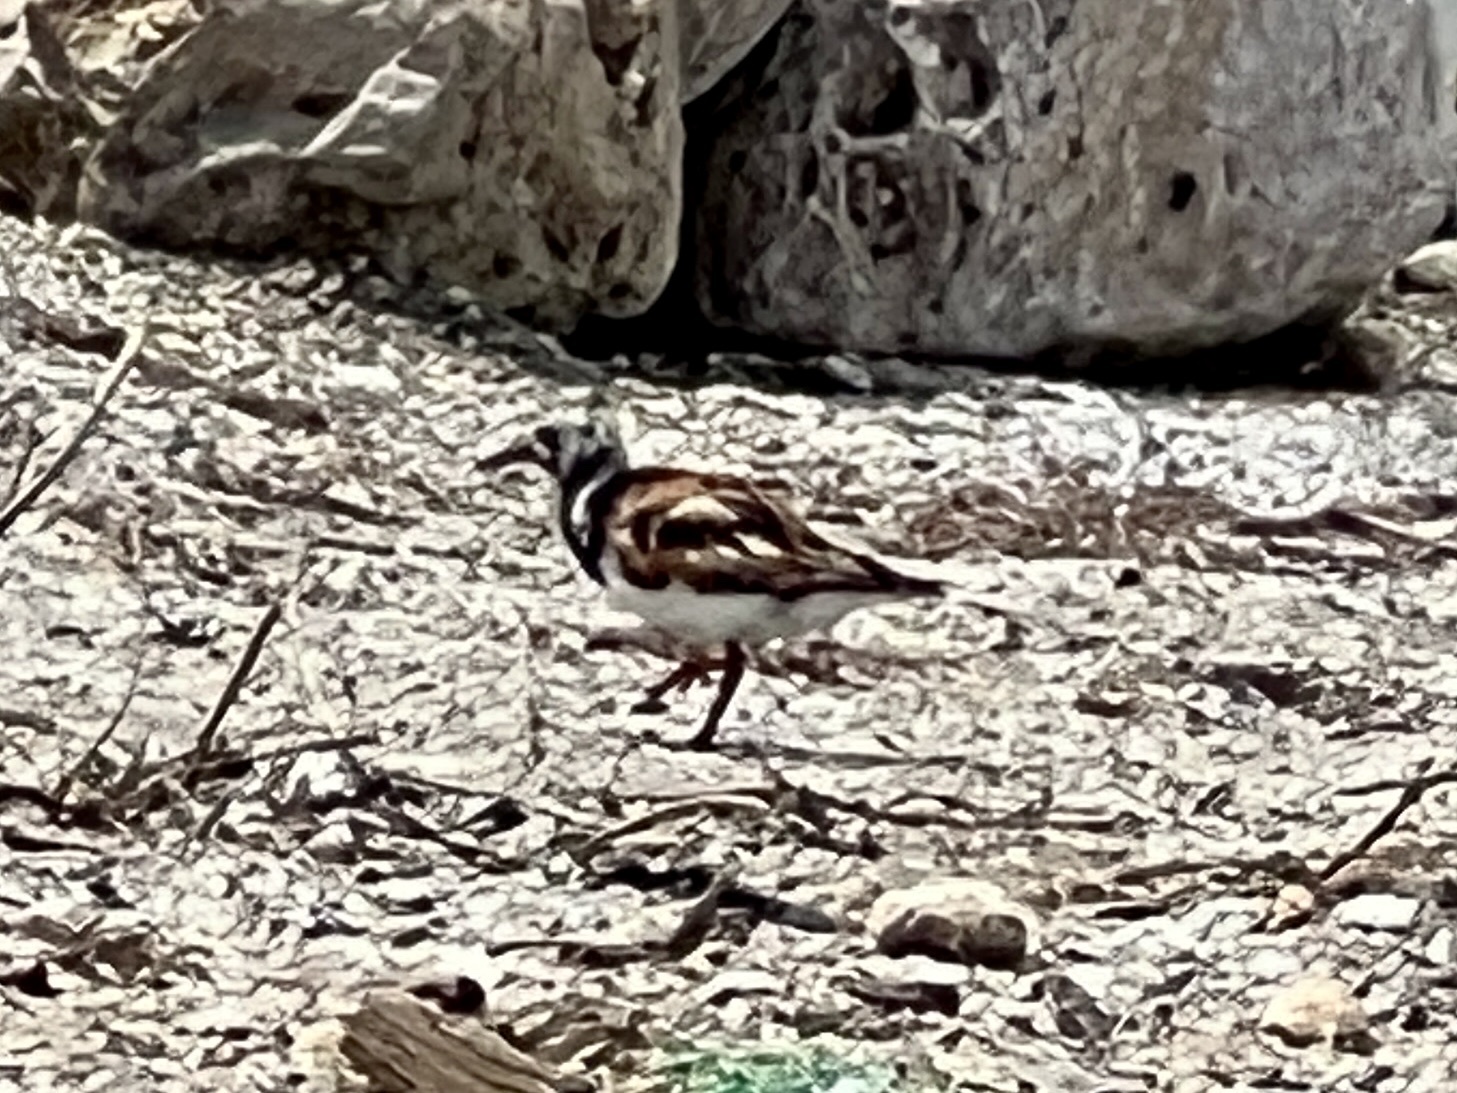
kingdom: Animalia
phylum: Chordata
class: Aves
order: Charadriiformes
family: Scolopacidae
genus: Arenaria
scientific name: Arenaria interpres
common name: Ruddy turnstone
